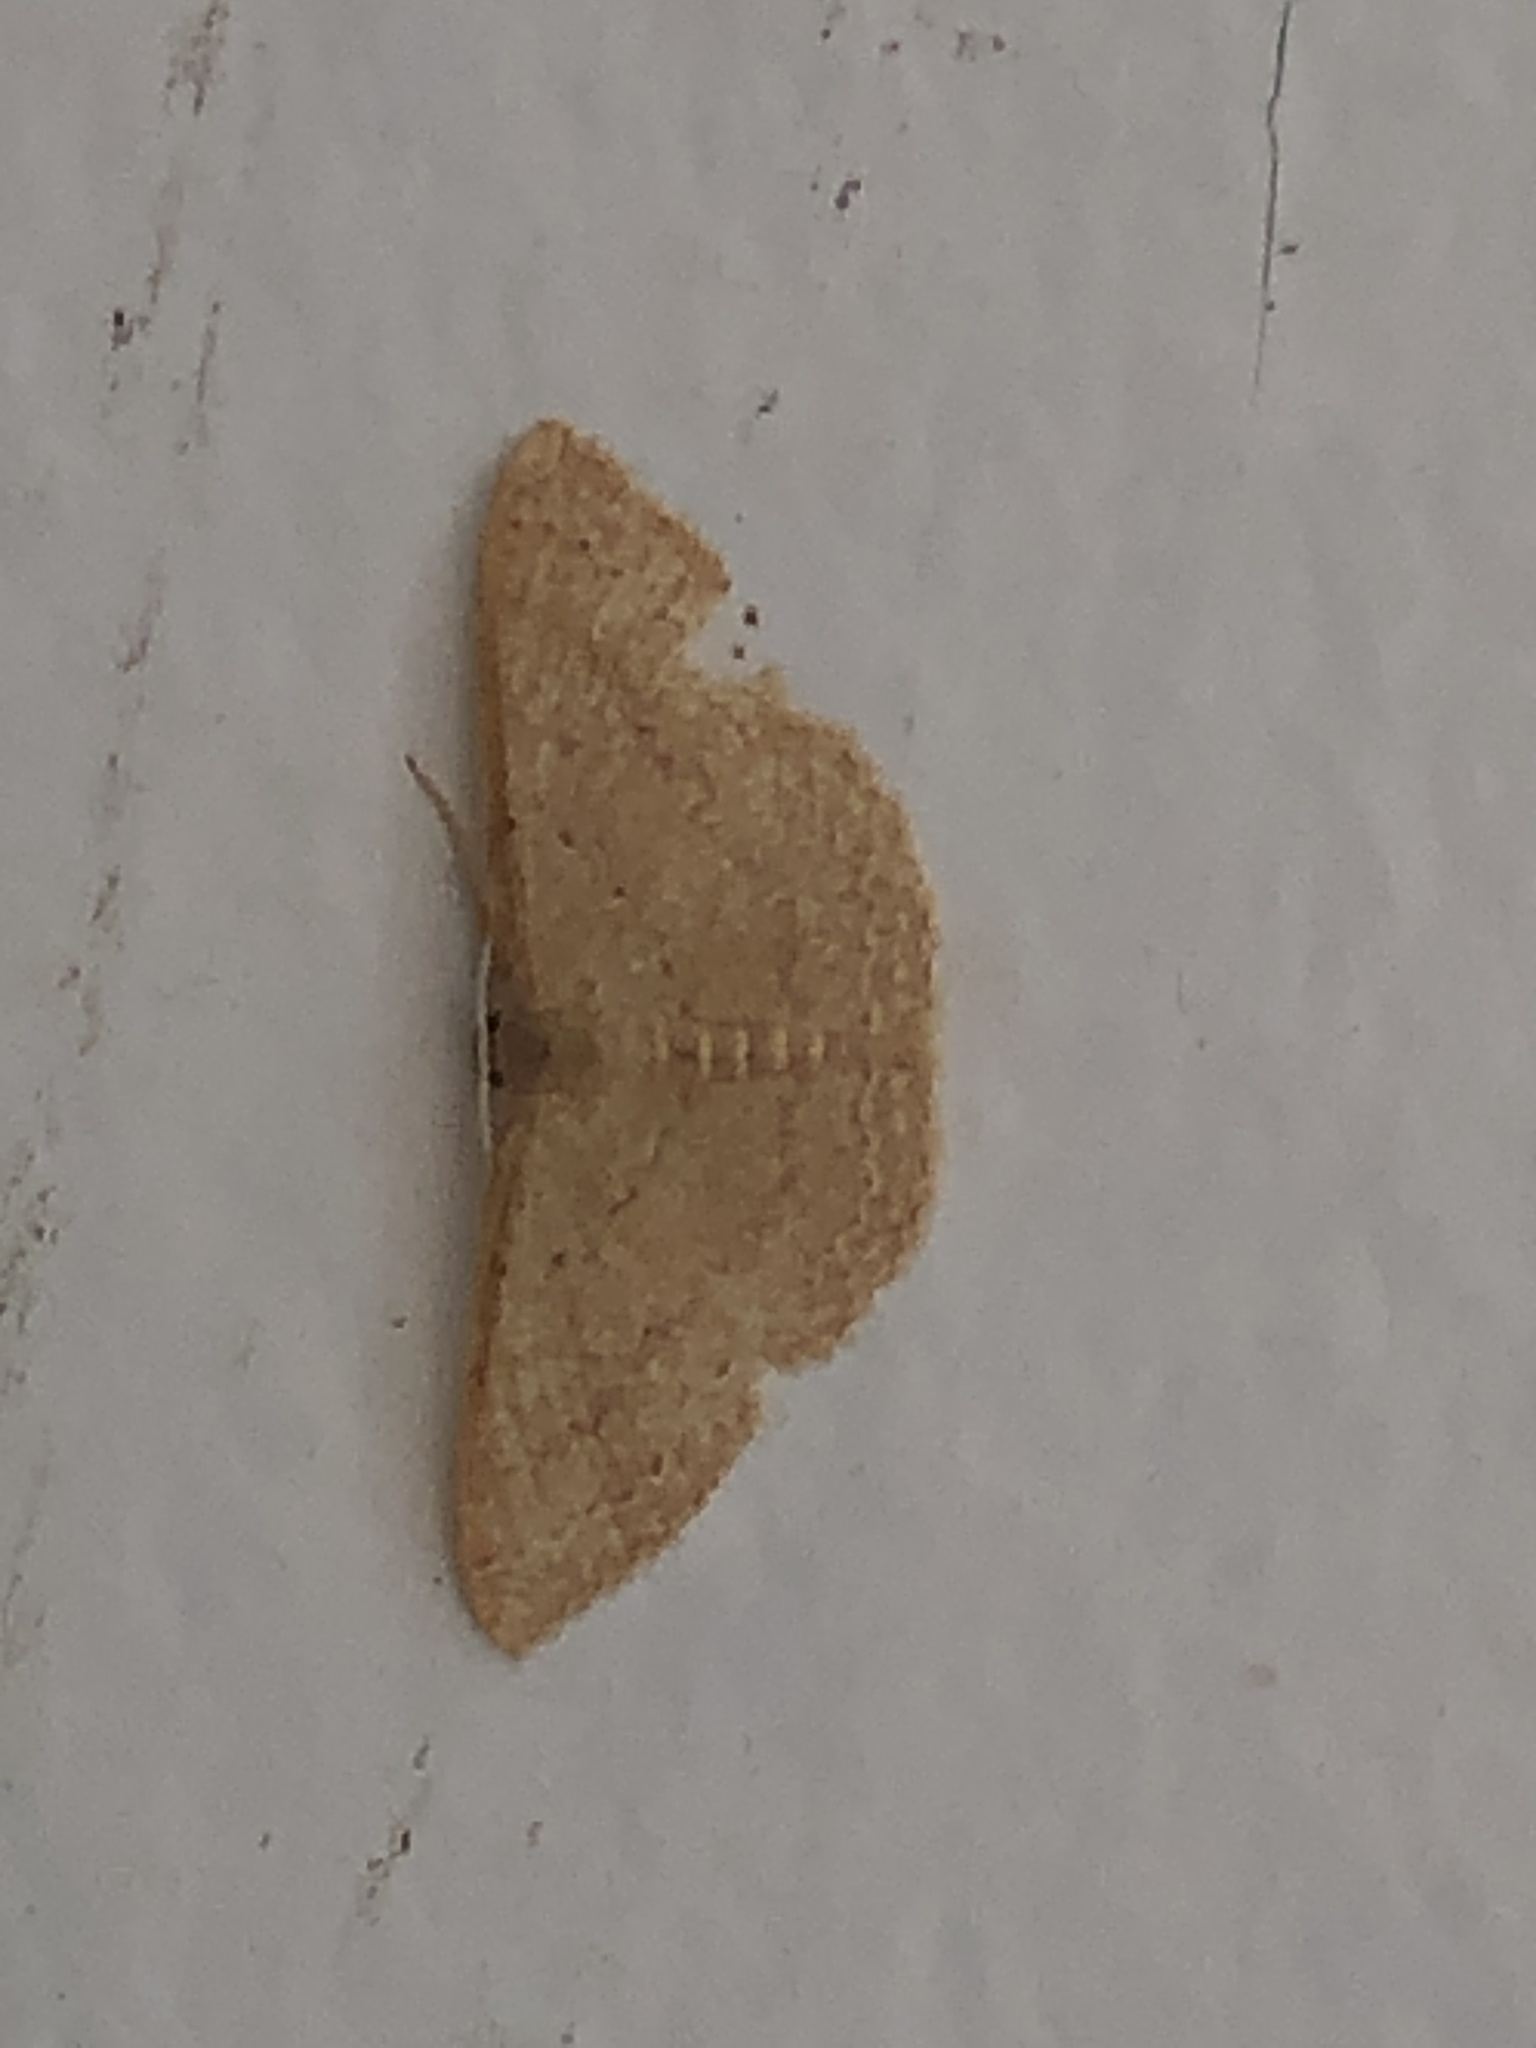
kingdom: Animalia
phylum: Arthropoda
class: Insecta
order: Lepidoptera
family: Geometridae
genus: Pleuroprucha
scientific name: Pleuroprucha insulsaria
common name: Common tan wave
